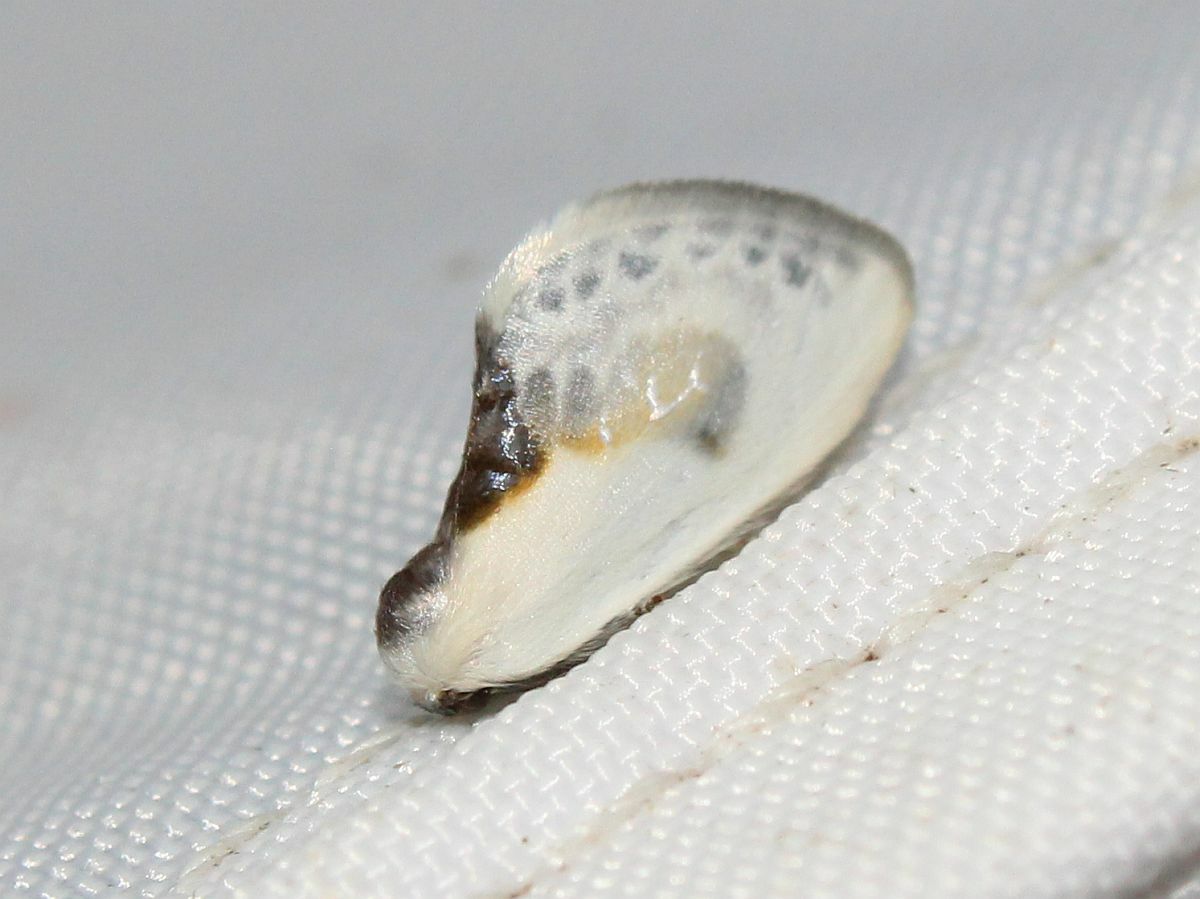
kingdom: Animalia
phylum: Arthropoda
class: Insecta
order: Lepidoptera
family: Drepanidae
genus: Cilix
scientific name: Cilix glaucata
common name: Chinese character
